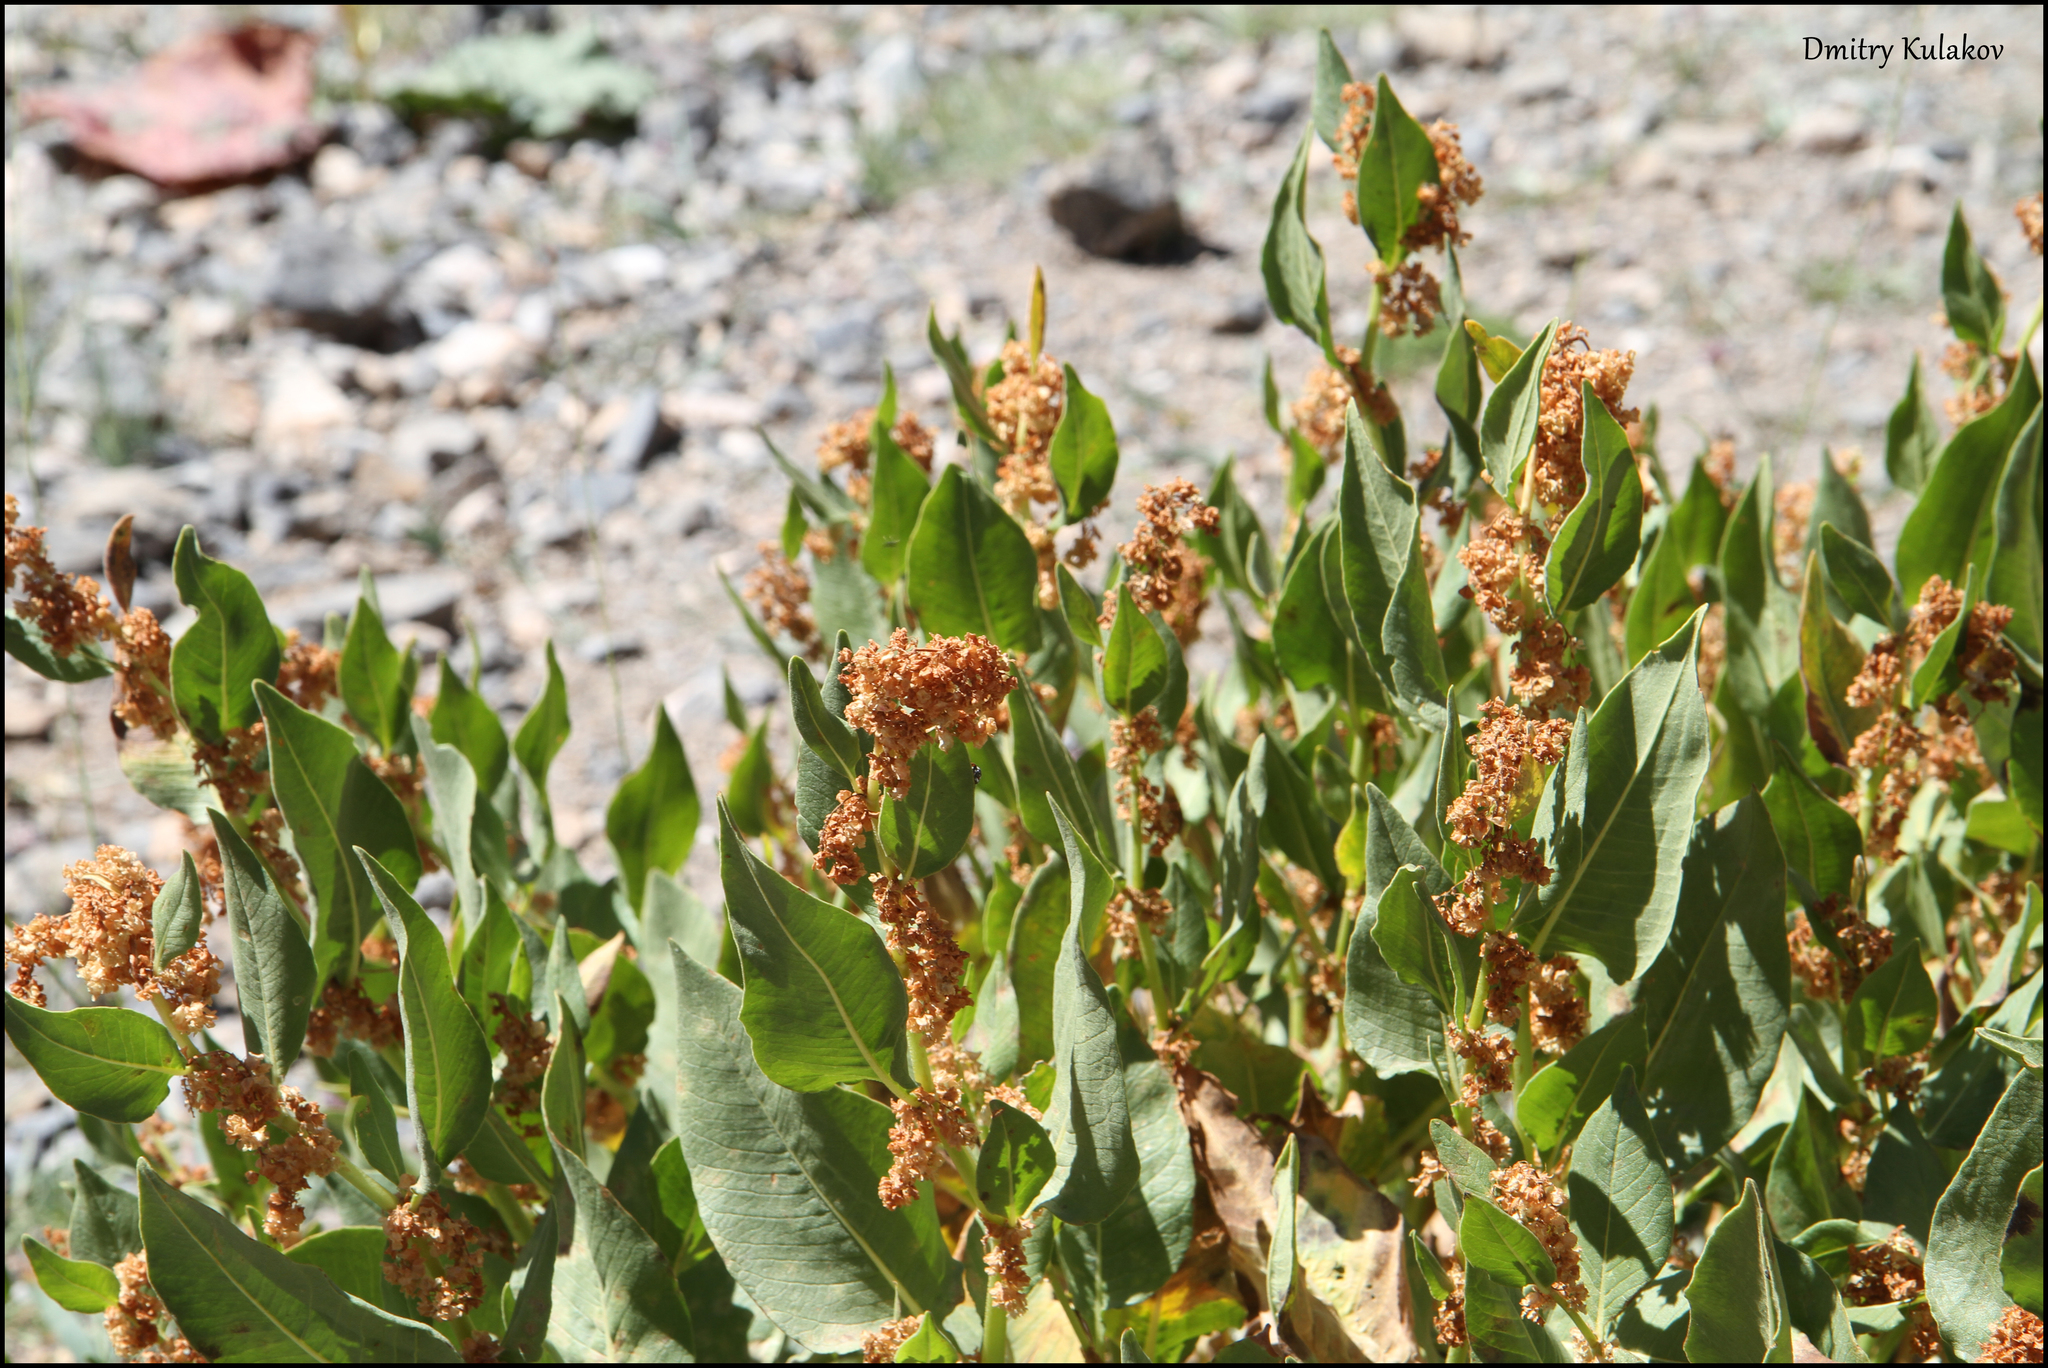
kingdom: Plantae
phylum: Tracheophyta
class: Magnoliopsida
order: Caryophyllales
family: Polygonaceae
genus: Koenigia
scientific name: Koenigia rumicifolia
